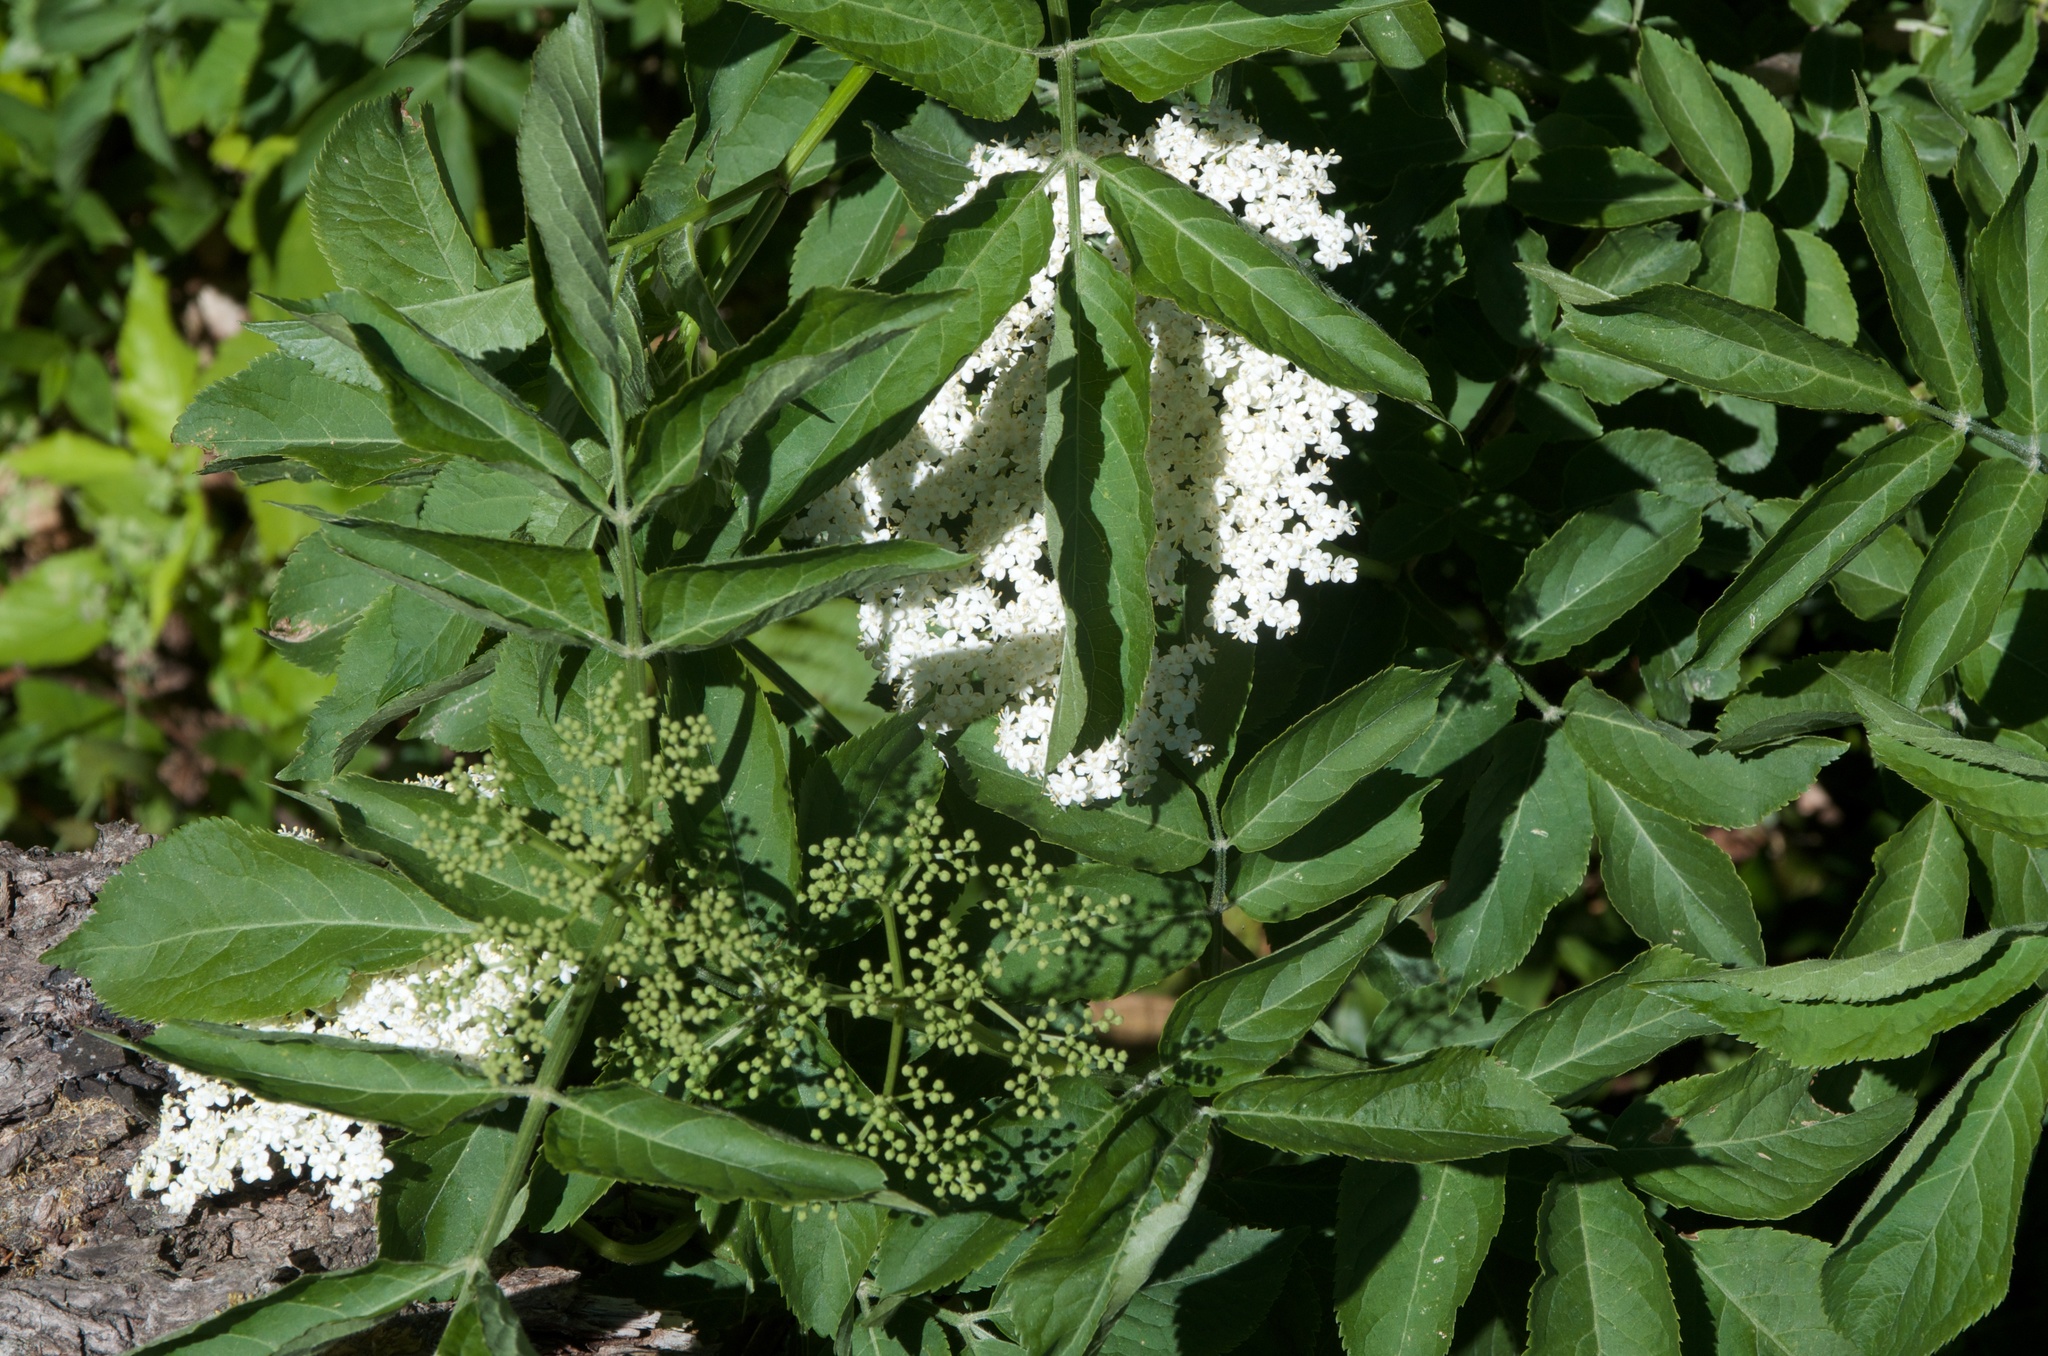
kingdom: Plantae
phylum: Tracheophyta
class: Magnoliopsida
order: Dipsacales
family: Viburnaceae
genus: Sambucus
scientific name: Sambucus nigra
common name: Elder
